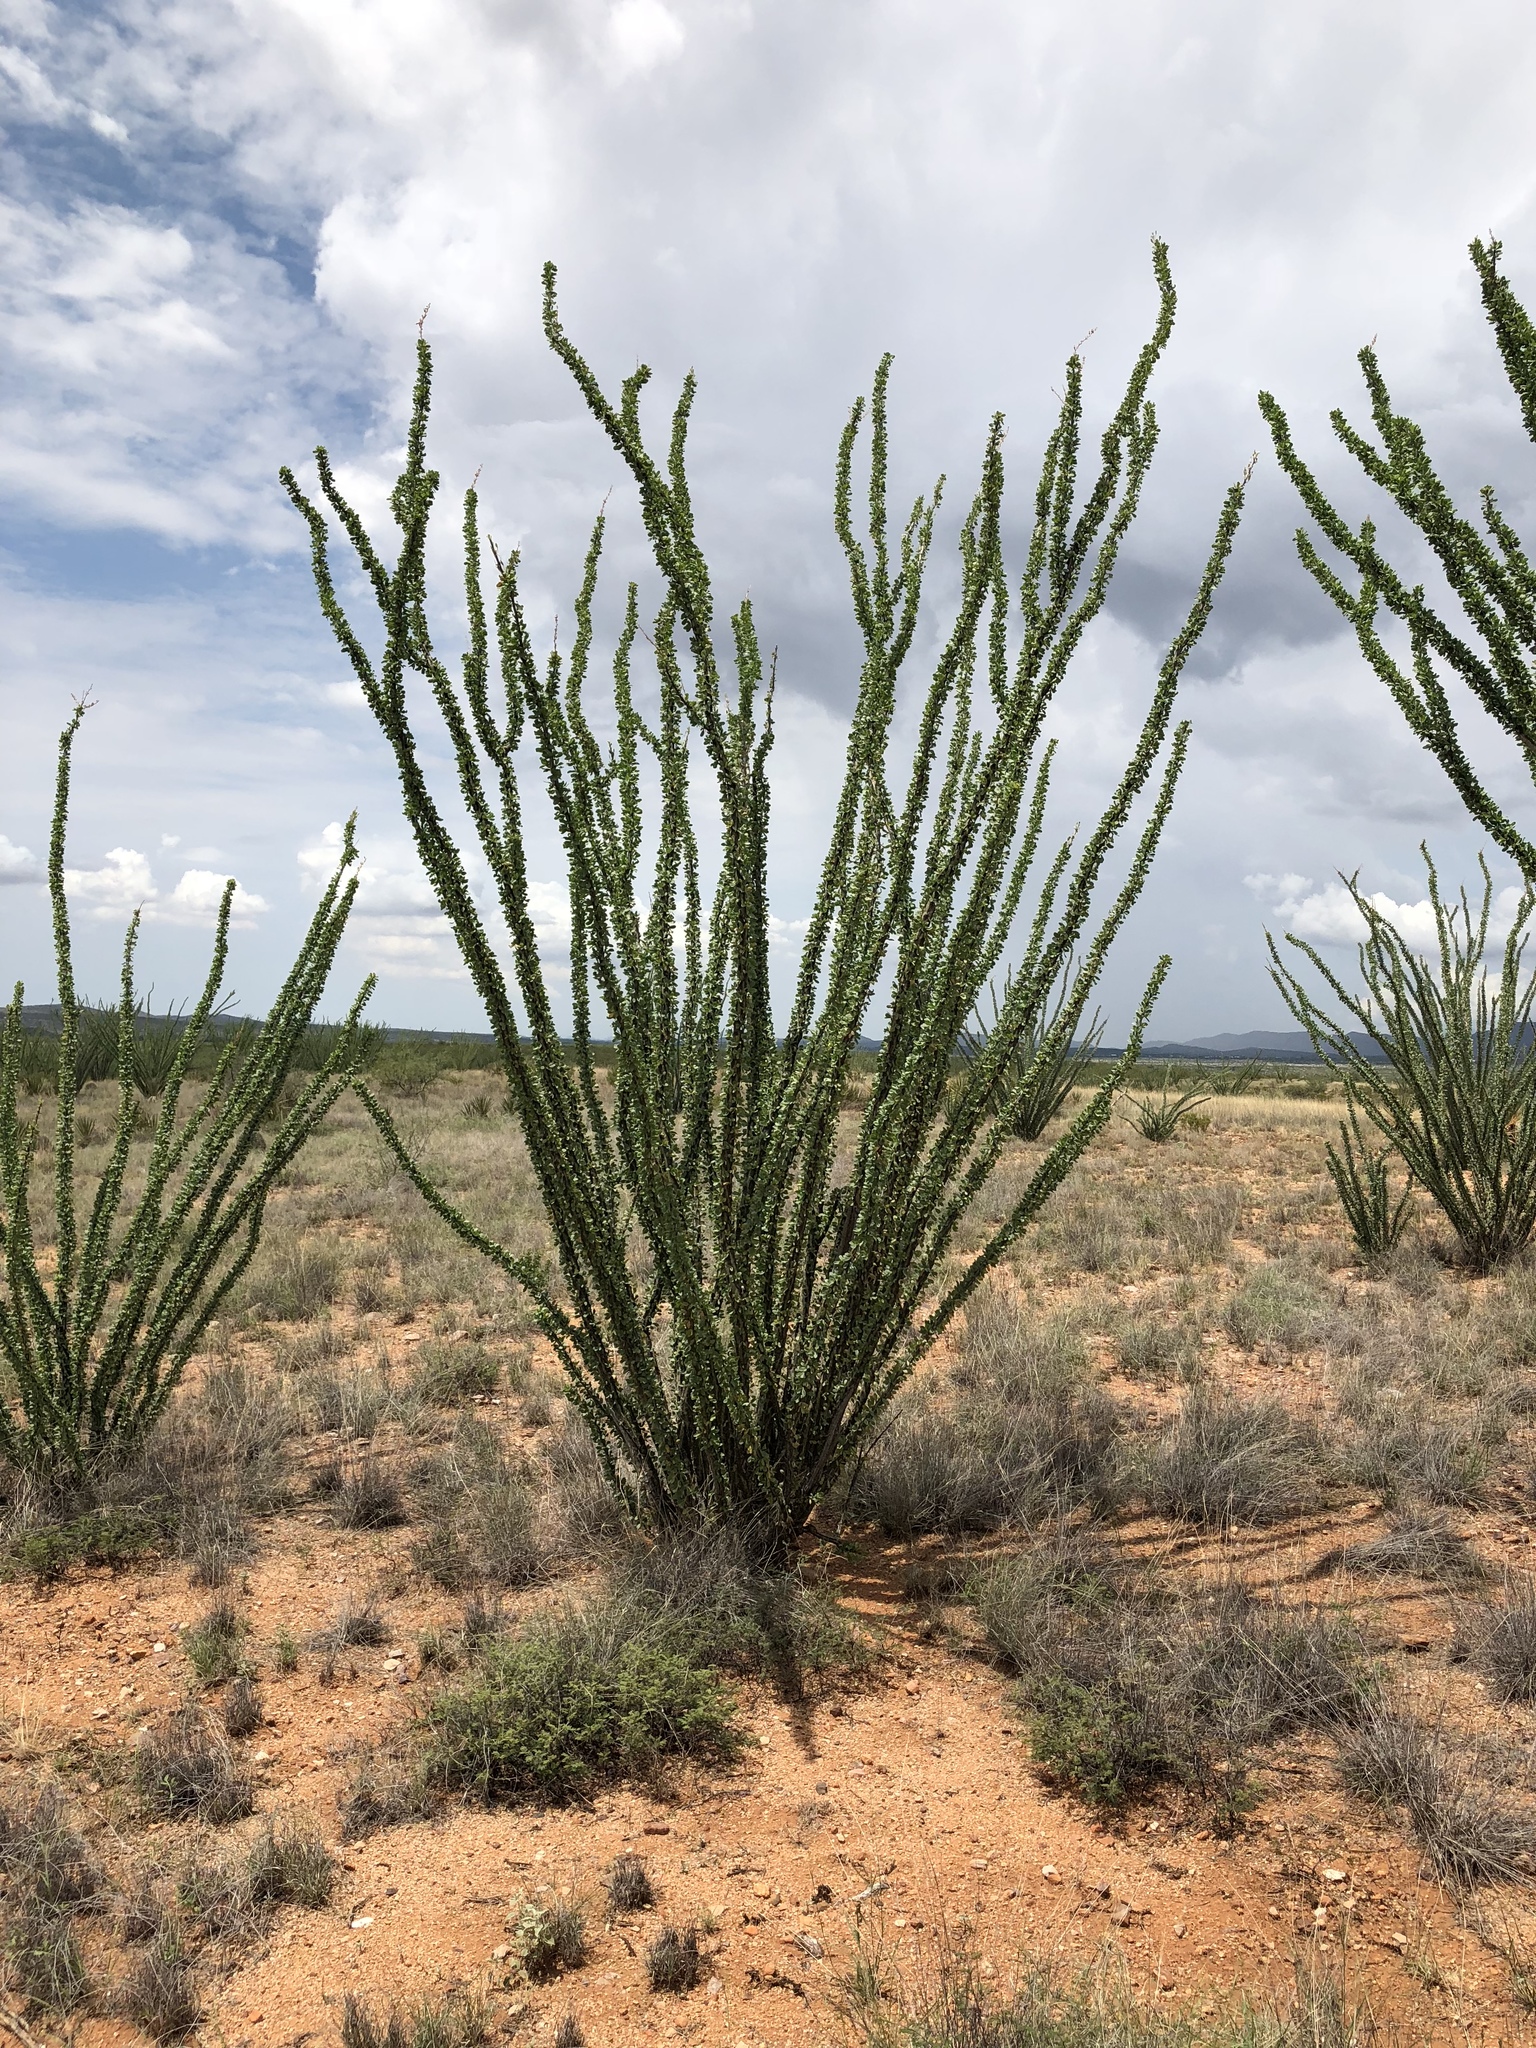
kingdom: Plantae
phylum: Tracheophyta
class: Magnoliopsida
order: Ericales
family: Fouquieriaceae
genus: Fouquieria
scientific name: Fouquieria splendens
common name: Vine-cactus
